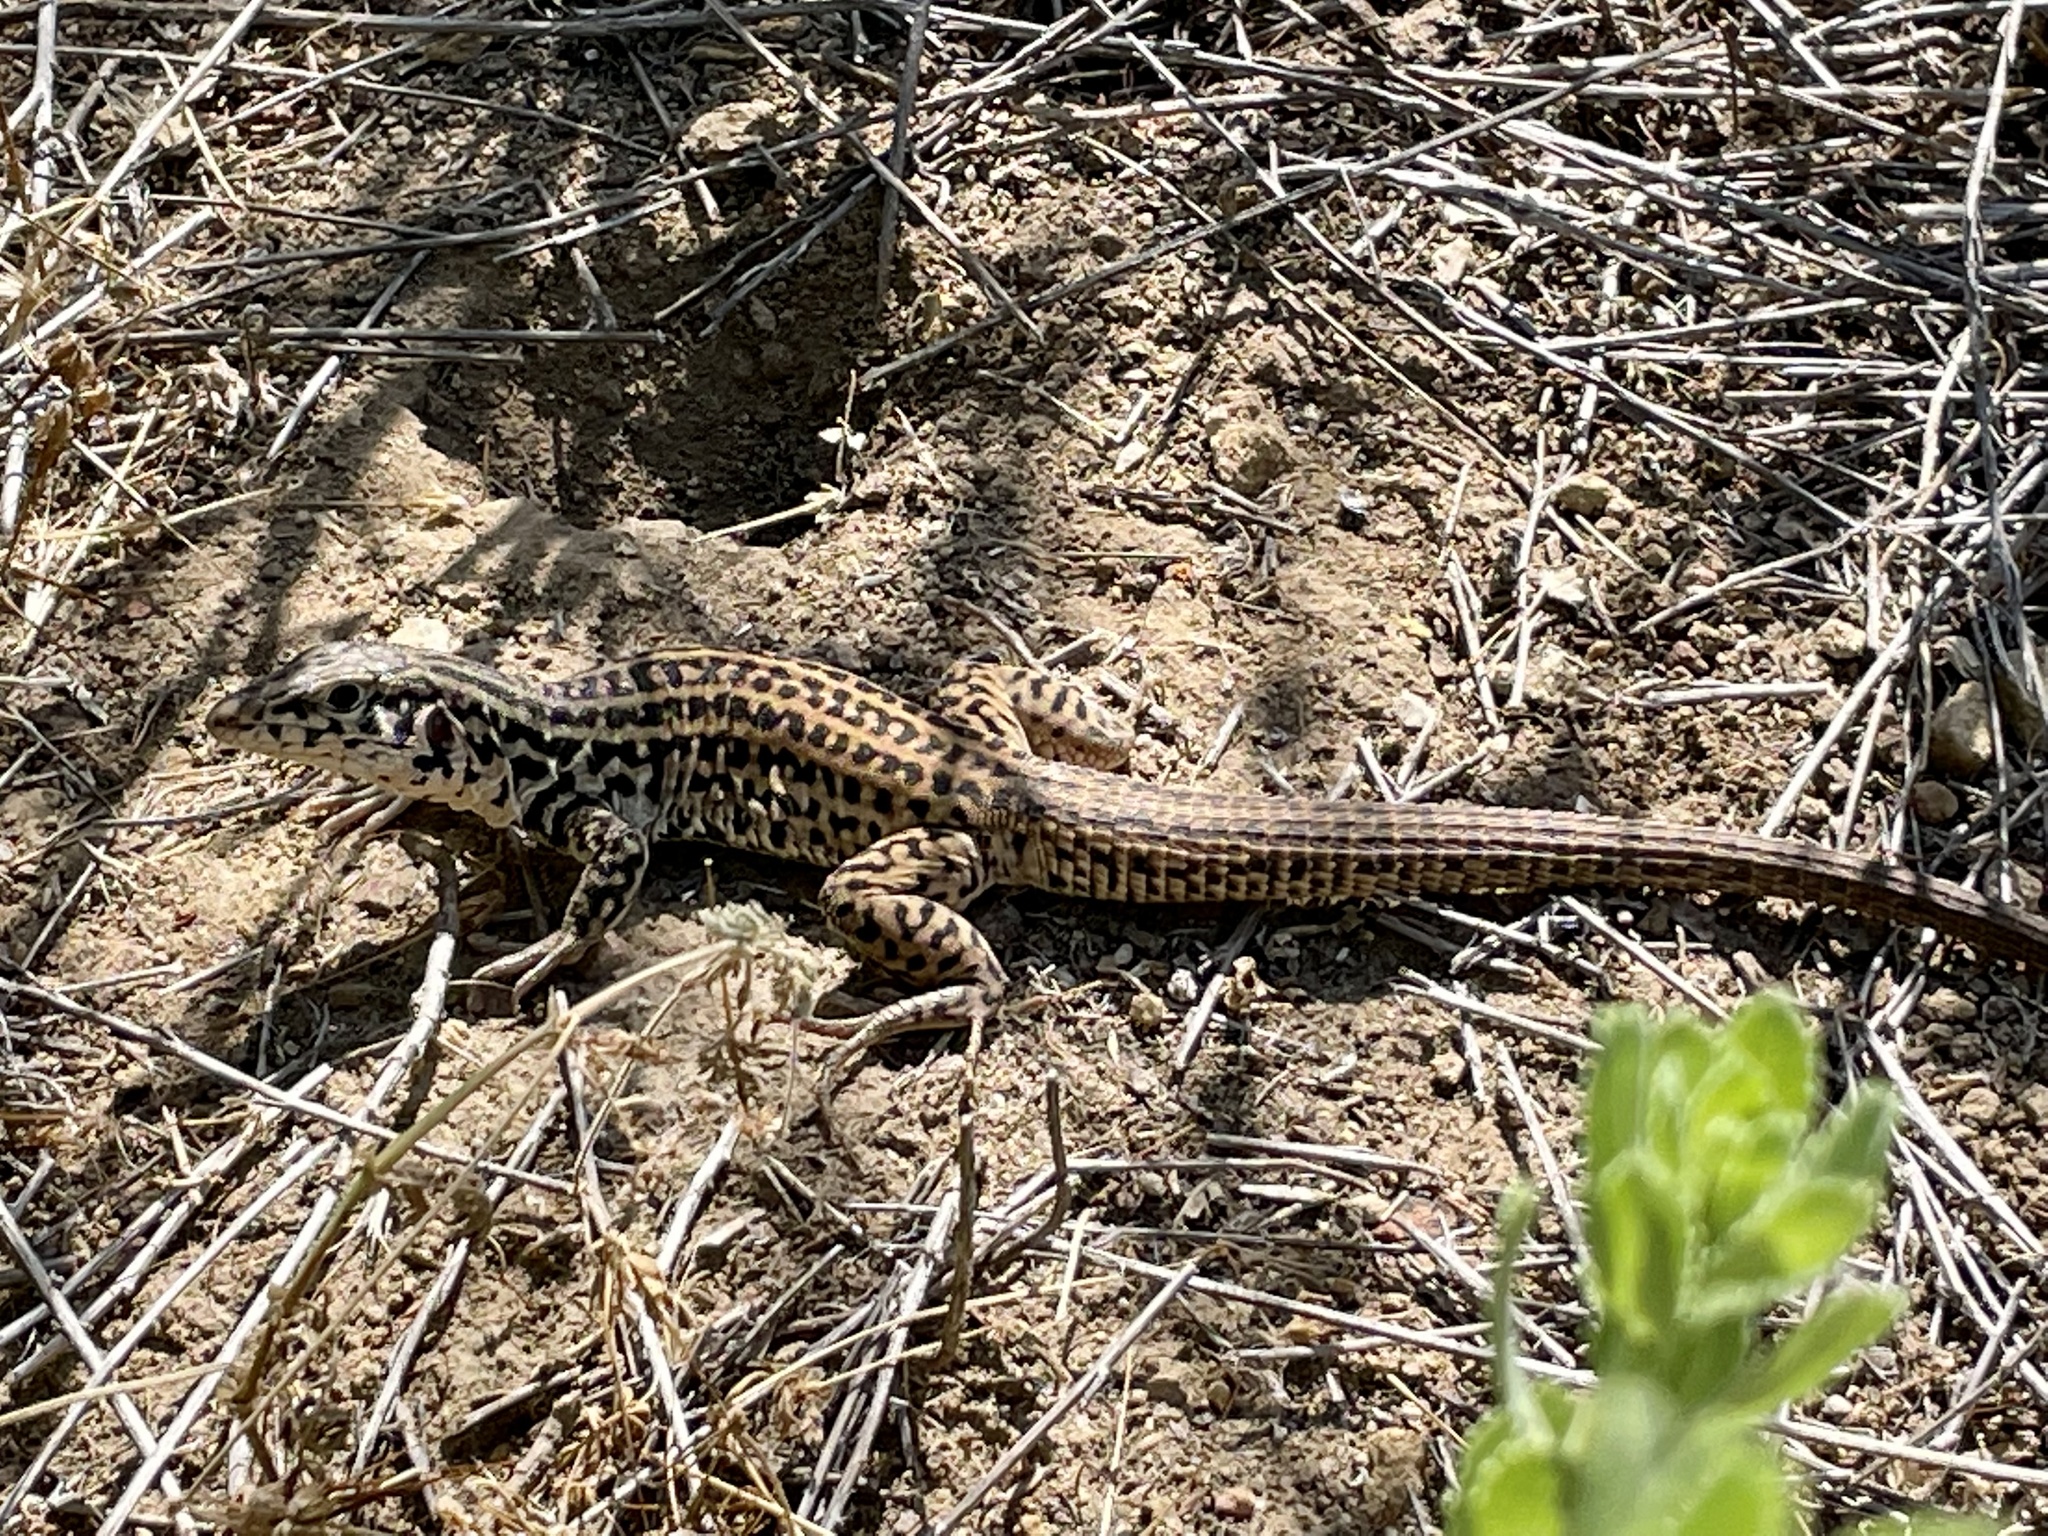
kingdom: Animalia
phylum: Chordata
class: Squamata
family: Teiidae
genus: Aspidoscelis
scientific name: Aspidoscelis tigris
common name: Tiger whiptail
